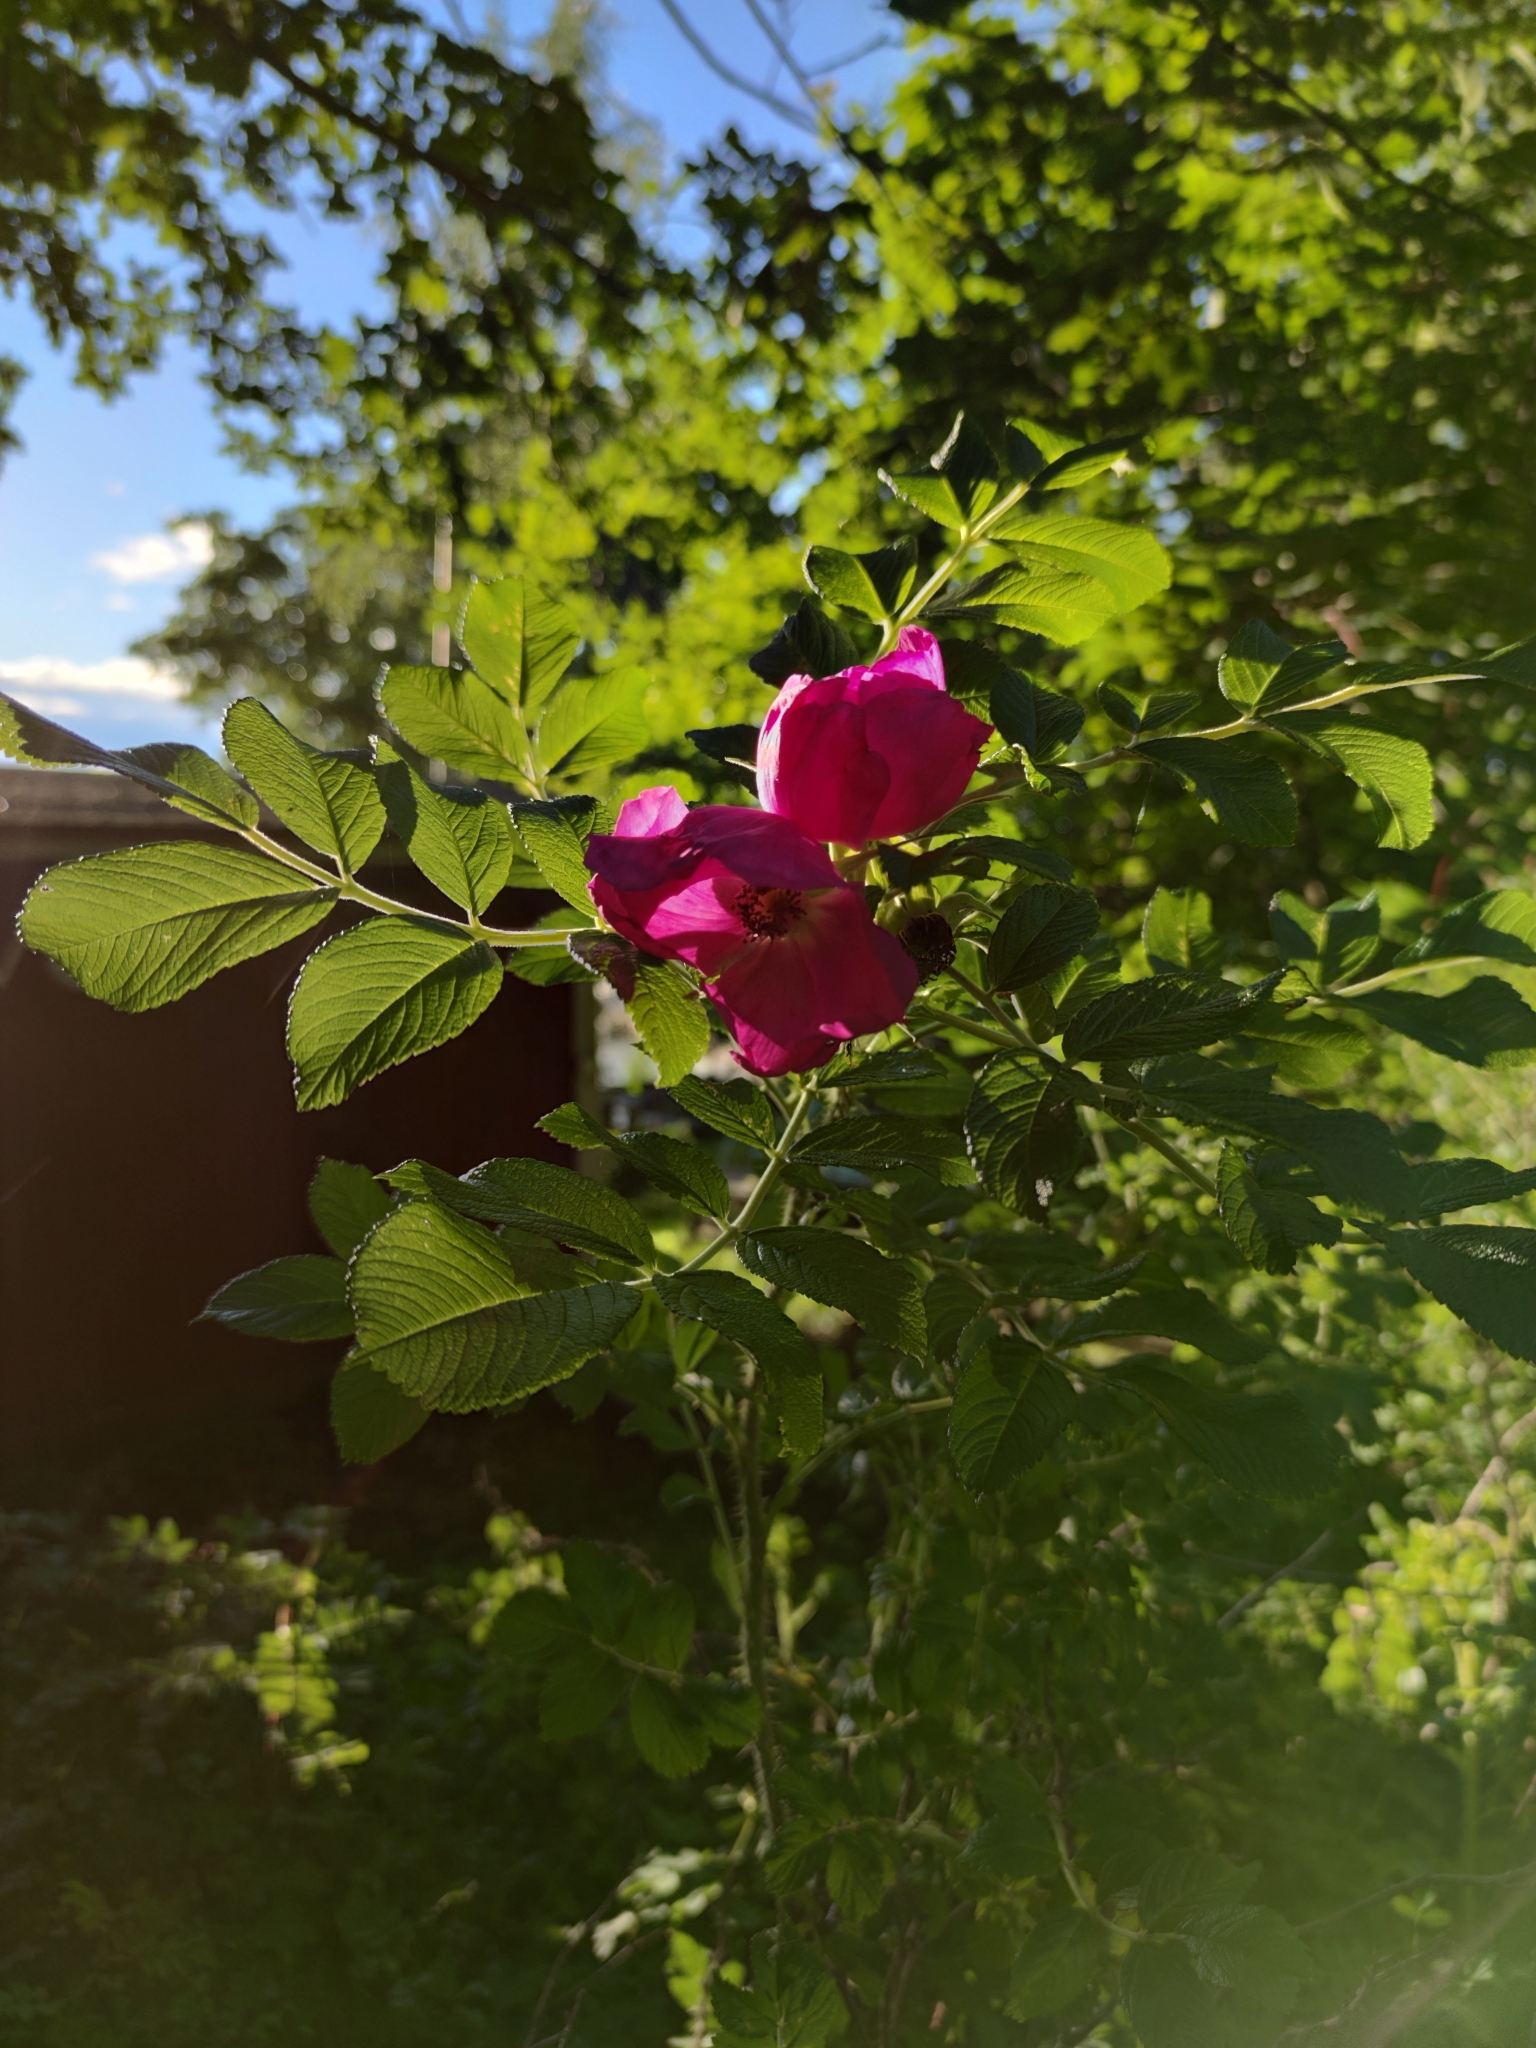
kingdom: Plantae
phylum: Tracheophyta
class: Magnoliopsida
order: Rosales
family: Rosaceae
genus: Rosa
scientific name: Rosa rugosa
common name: Japanese rose
